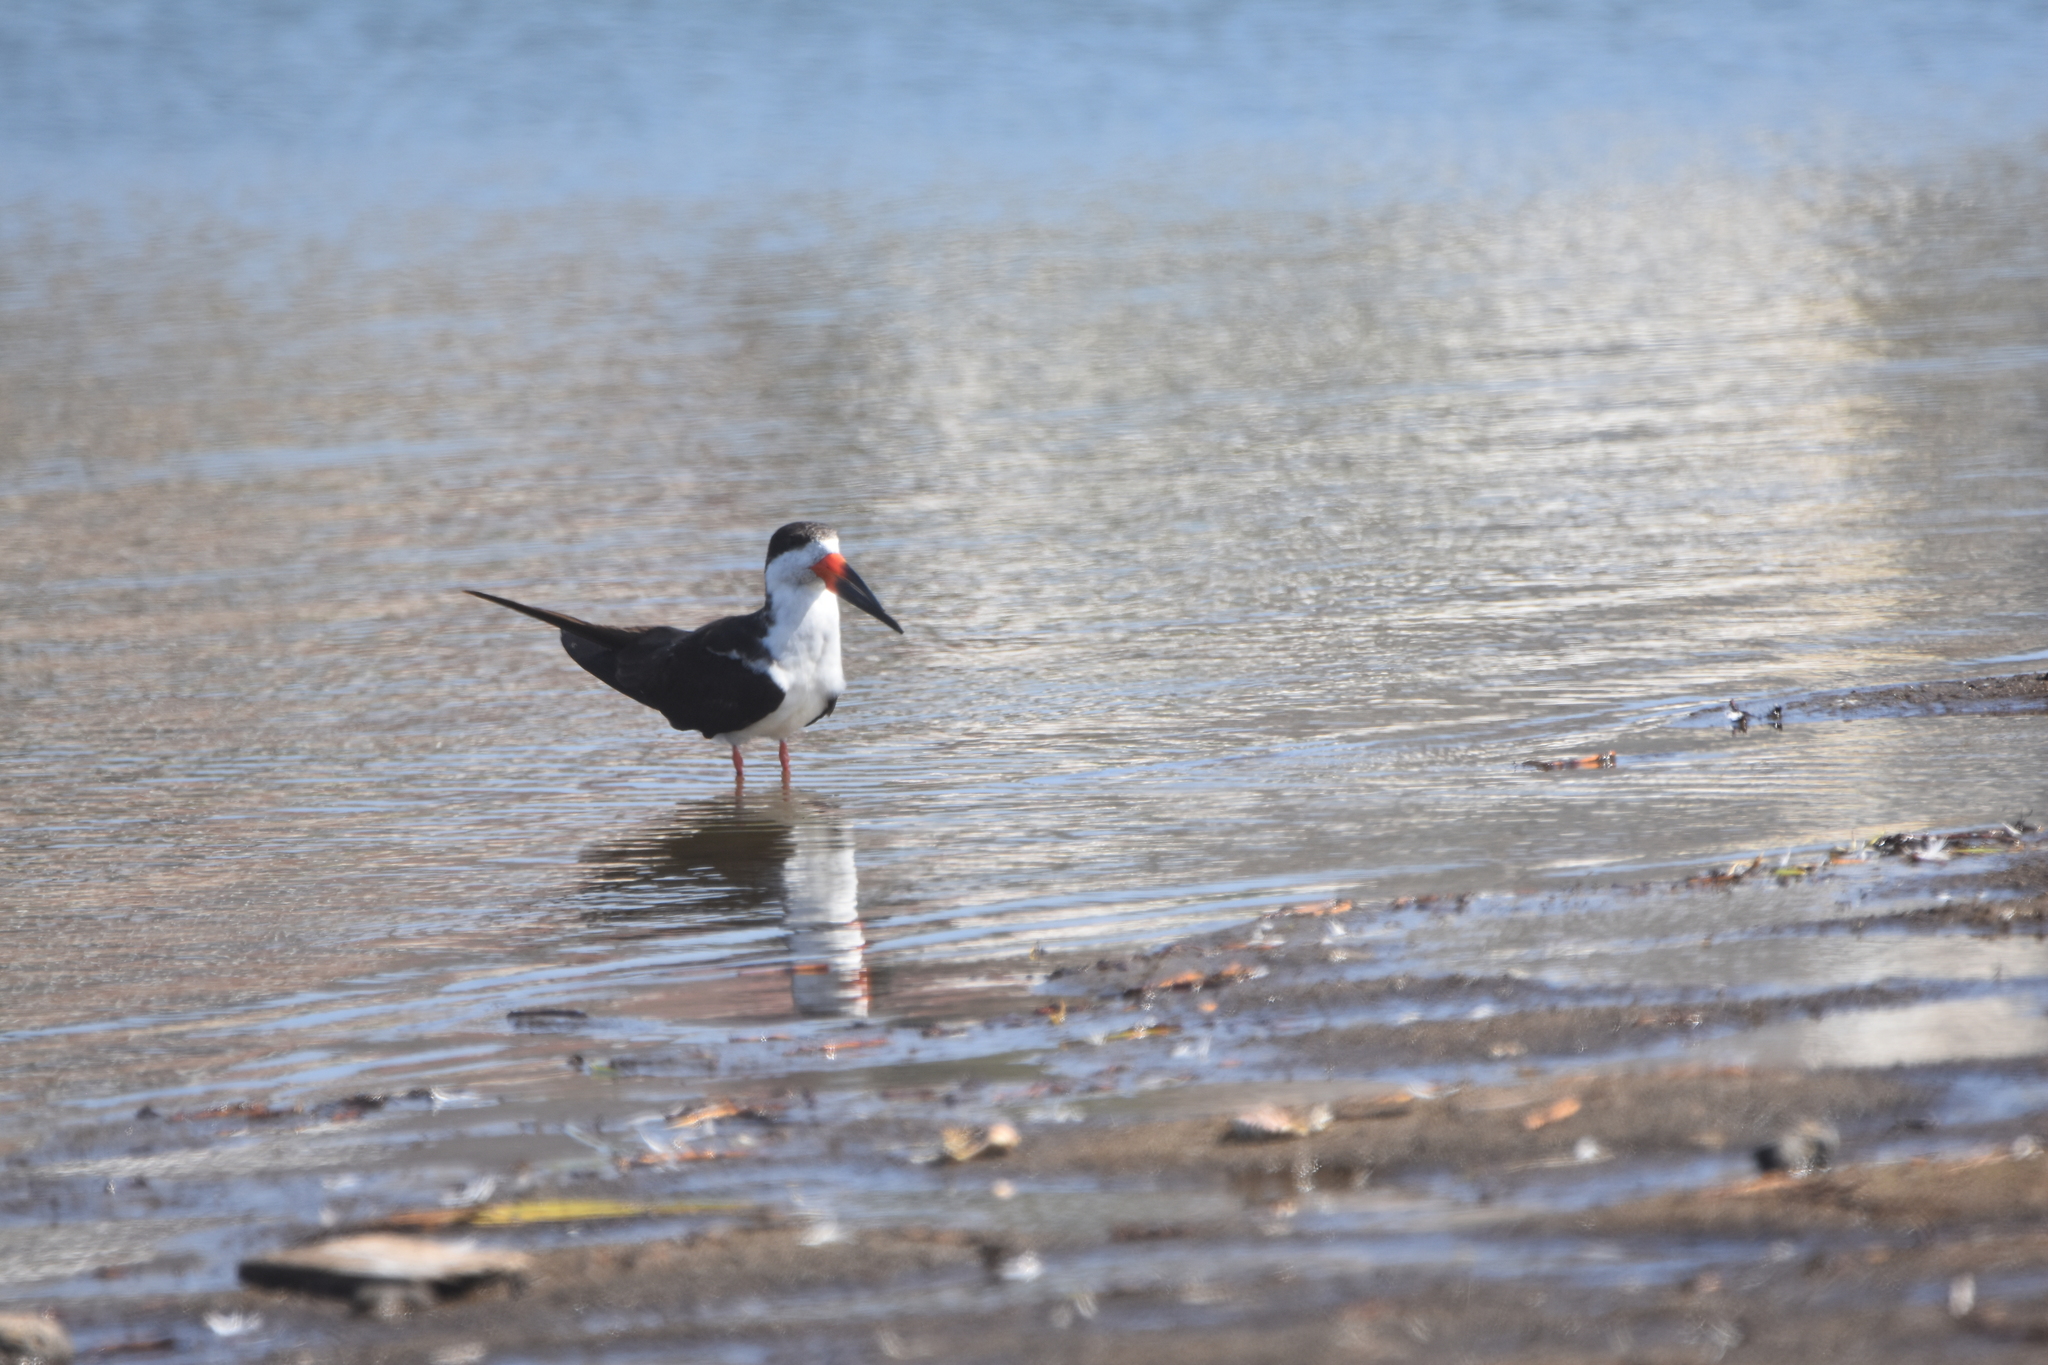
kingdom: Animalia
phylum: Chordata
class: Aves
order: Charadriiformes
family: Laridae
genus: Rynchops
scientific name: Rynchops niger
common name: Black skimmer
